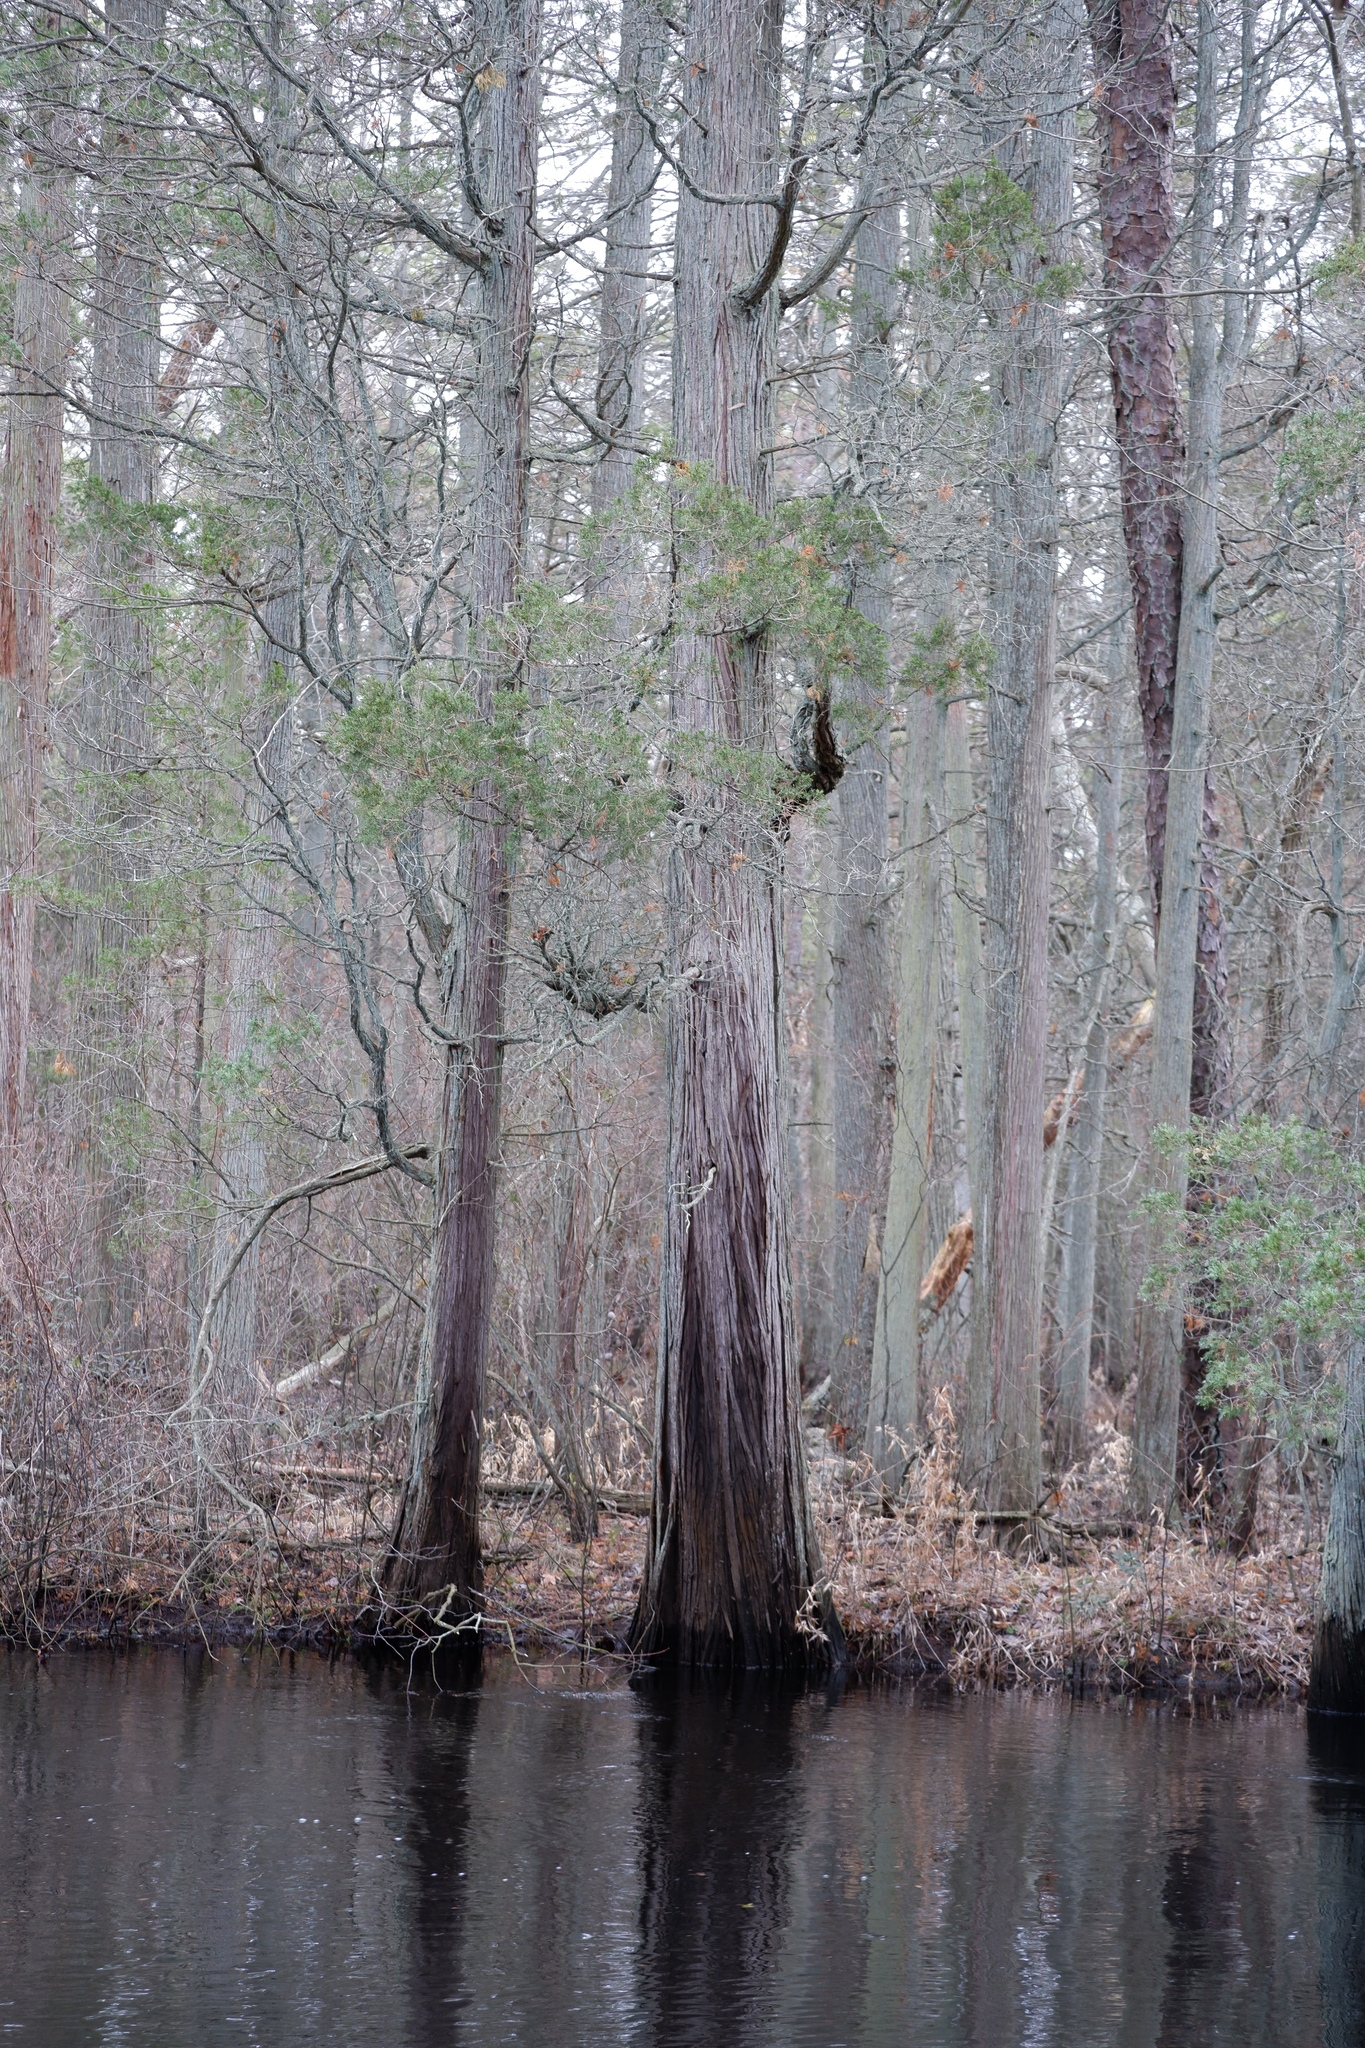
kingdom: Plantae
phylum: Tracheophyta
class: Pinopsida
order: Pinales
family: Cupressaceae
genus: Chamaecyparis
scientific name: Chamaecyparis thyoides
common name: Atlantic white cedar
